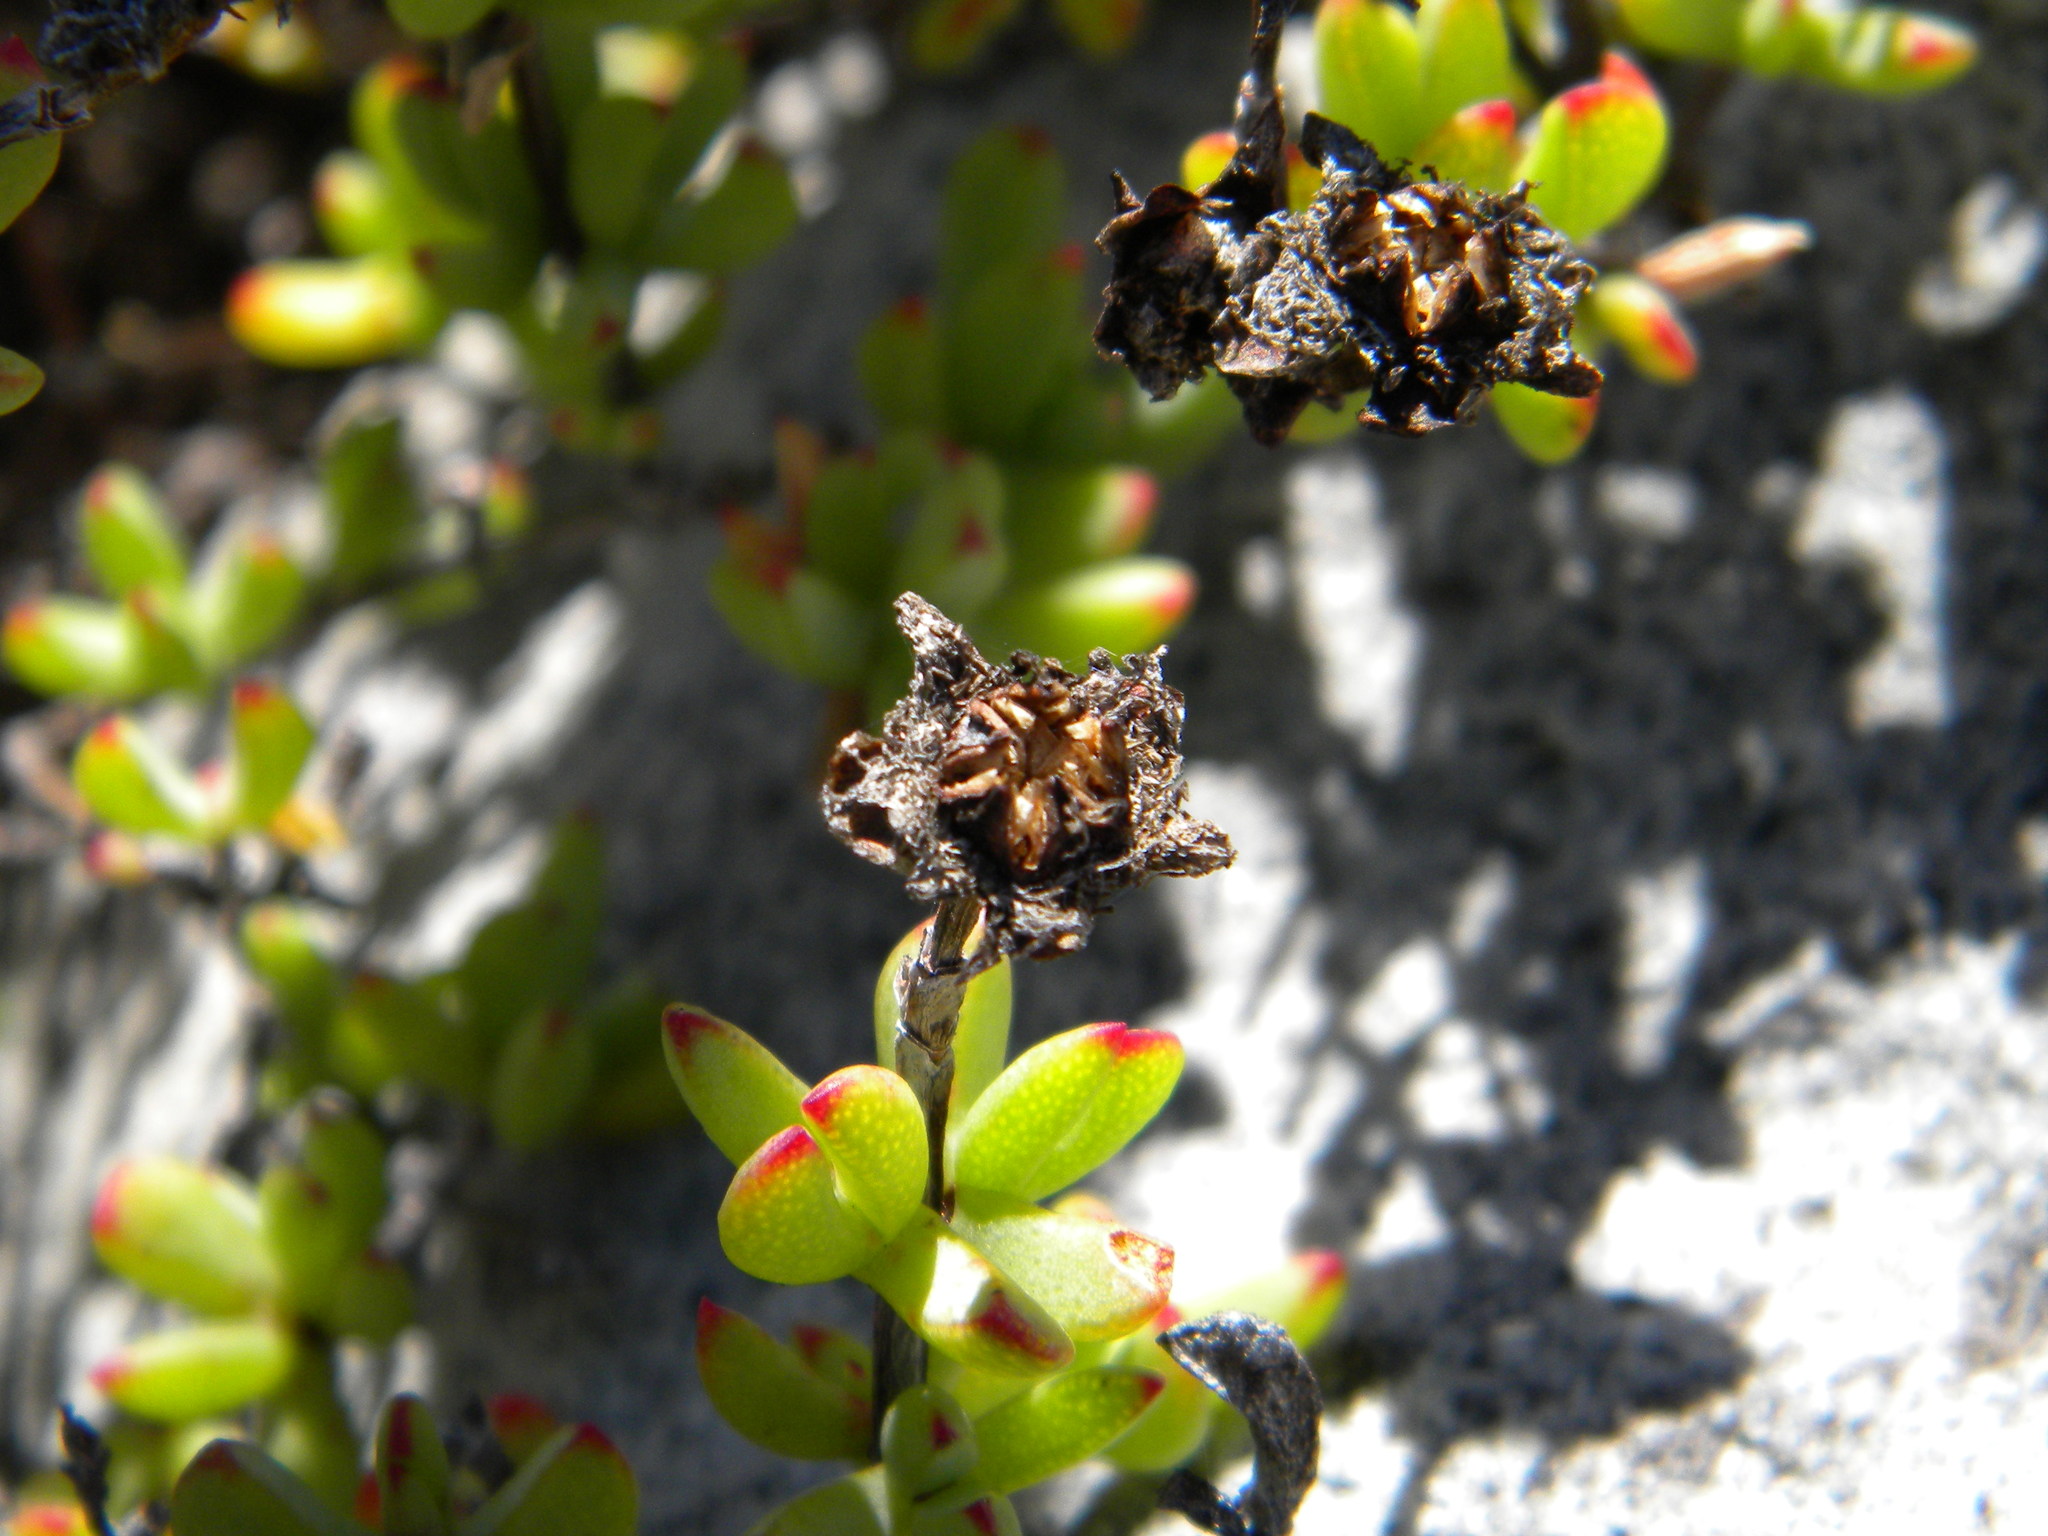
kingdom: Plantae
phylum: Tracheophyta
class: Magnoliopsida
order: Caryophyllales
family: Aizoaceae
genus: Oscularia
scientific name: Oscularia falciformis
